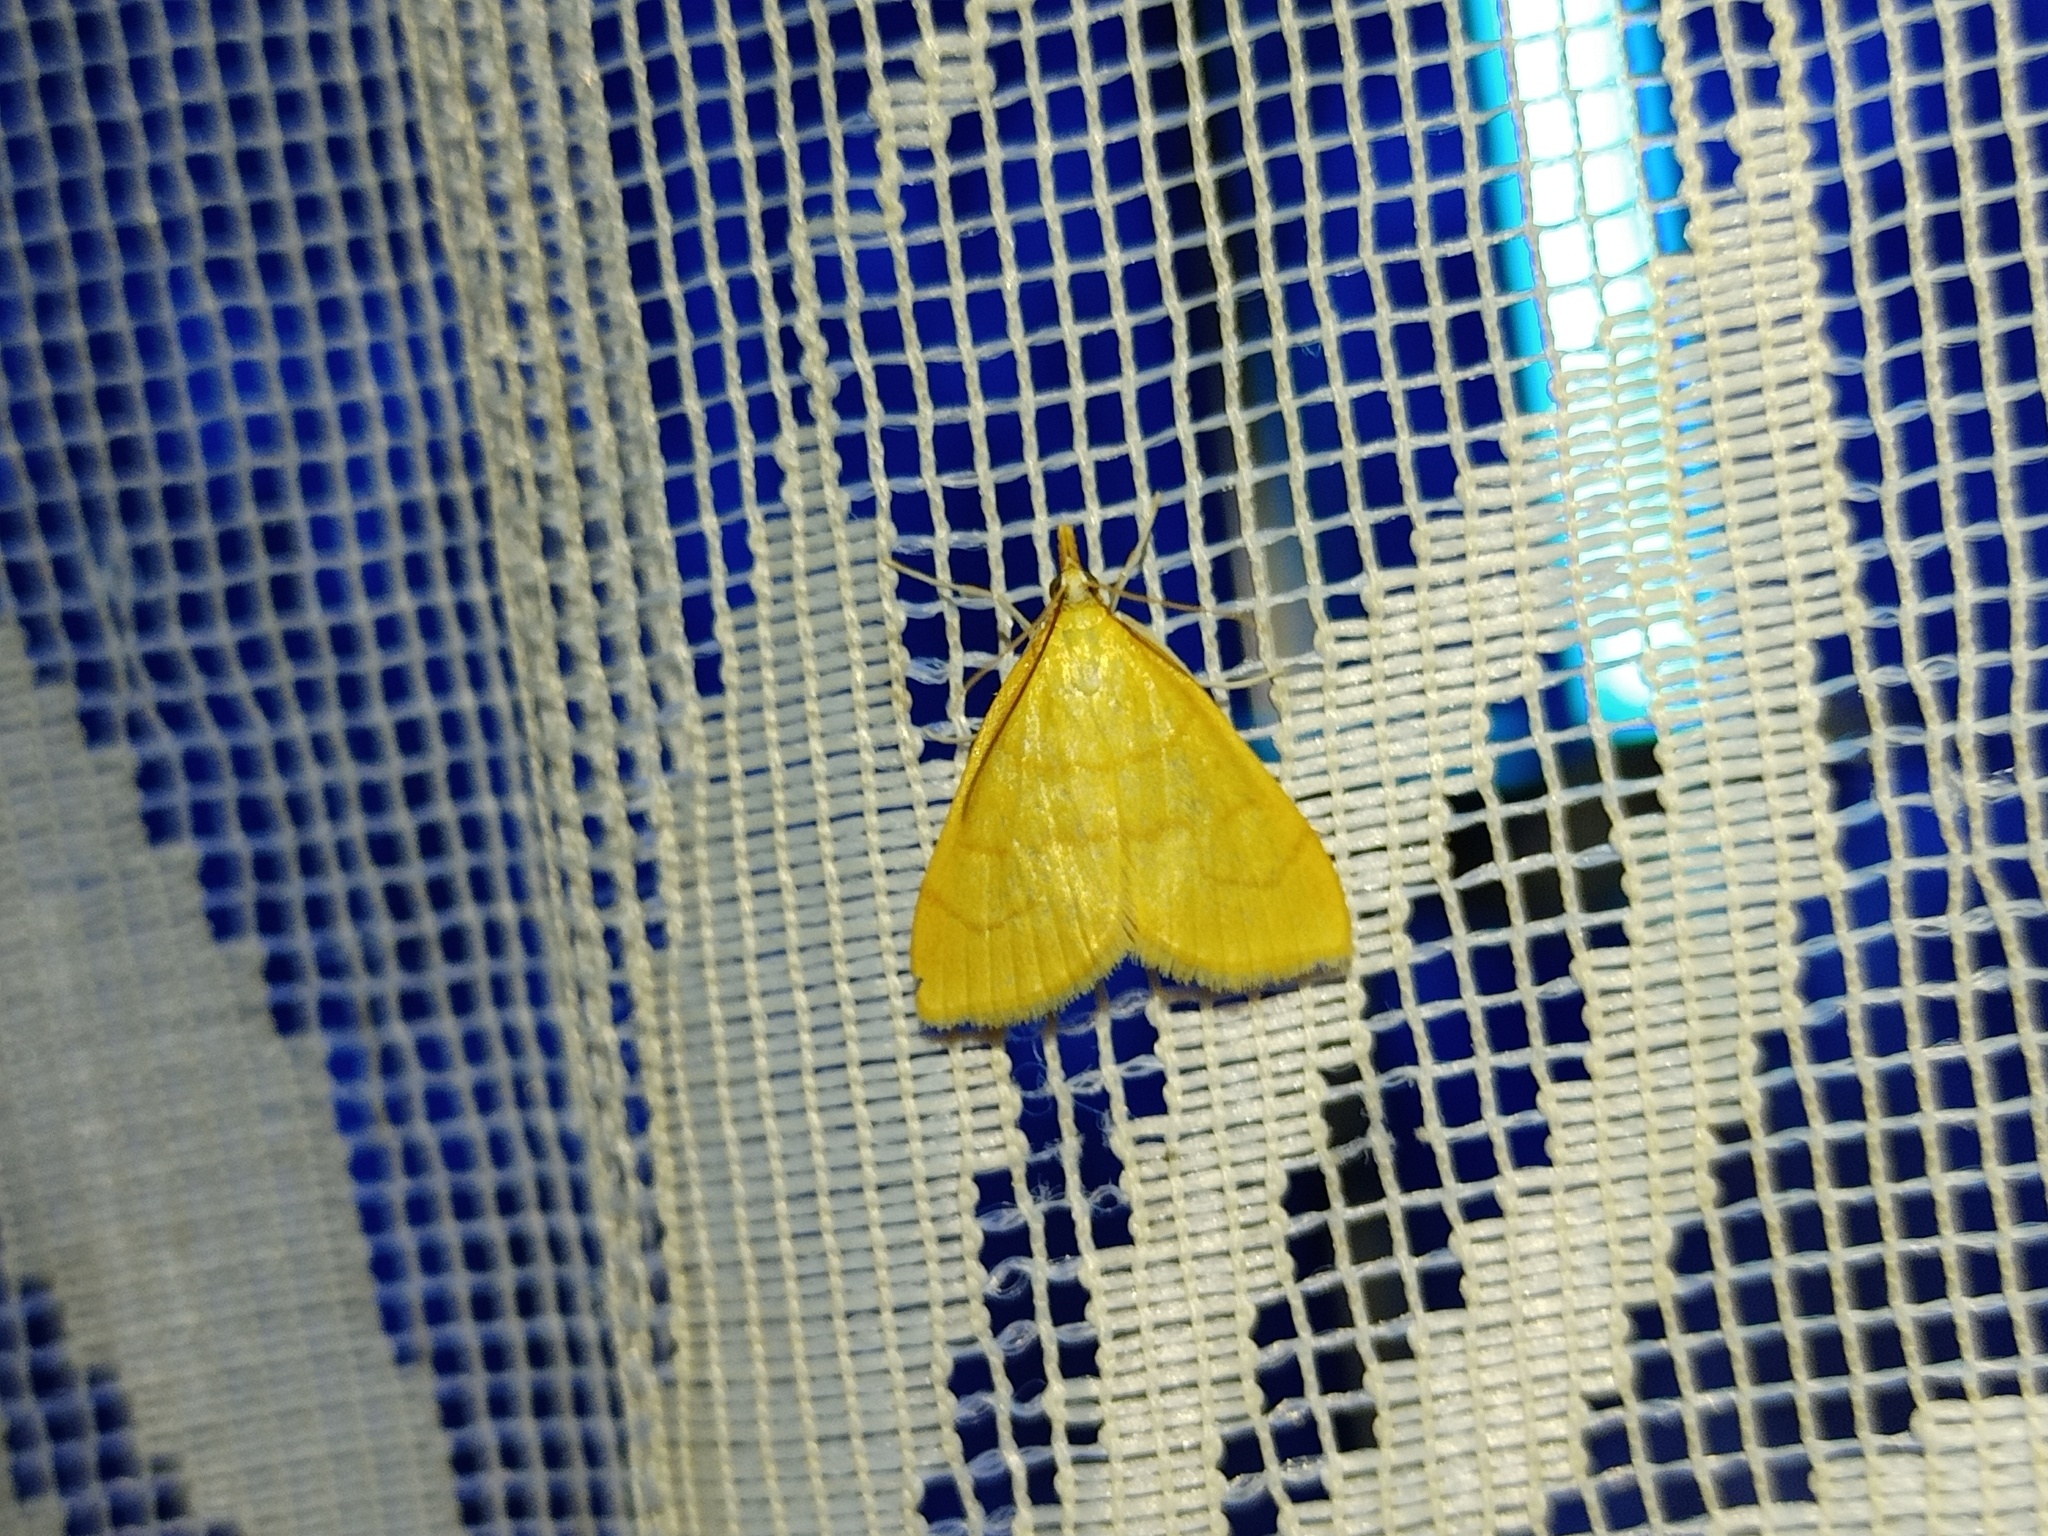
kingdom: Animalia
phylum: Arthropoda
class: Insecta
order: Lepidoptera
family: Crambidae
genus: Anania
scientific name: Anania crocealis
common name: Ochreous pearl
